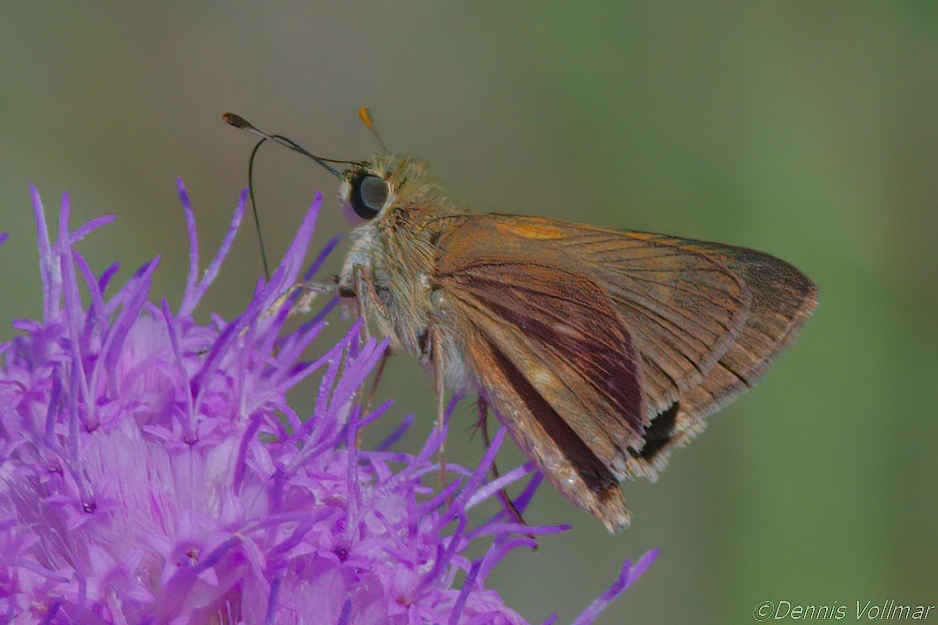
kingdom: Animalia
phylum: Arthropoda
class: Insecta
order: Lepidoptera
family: Hesperiidae
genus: Polites
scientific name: Polites otho
